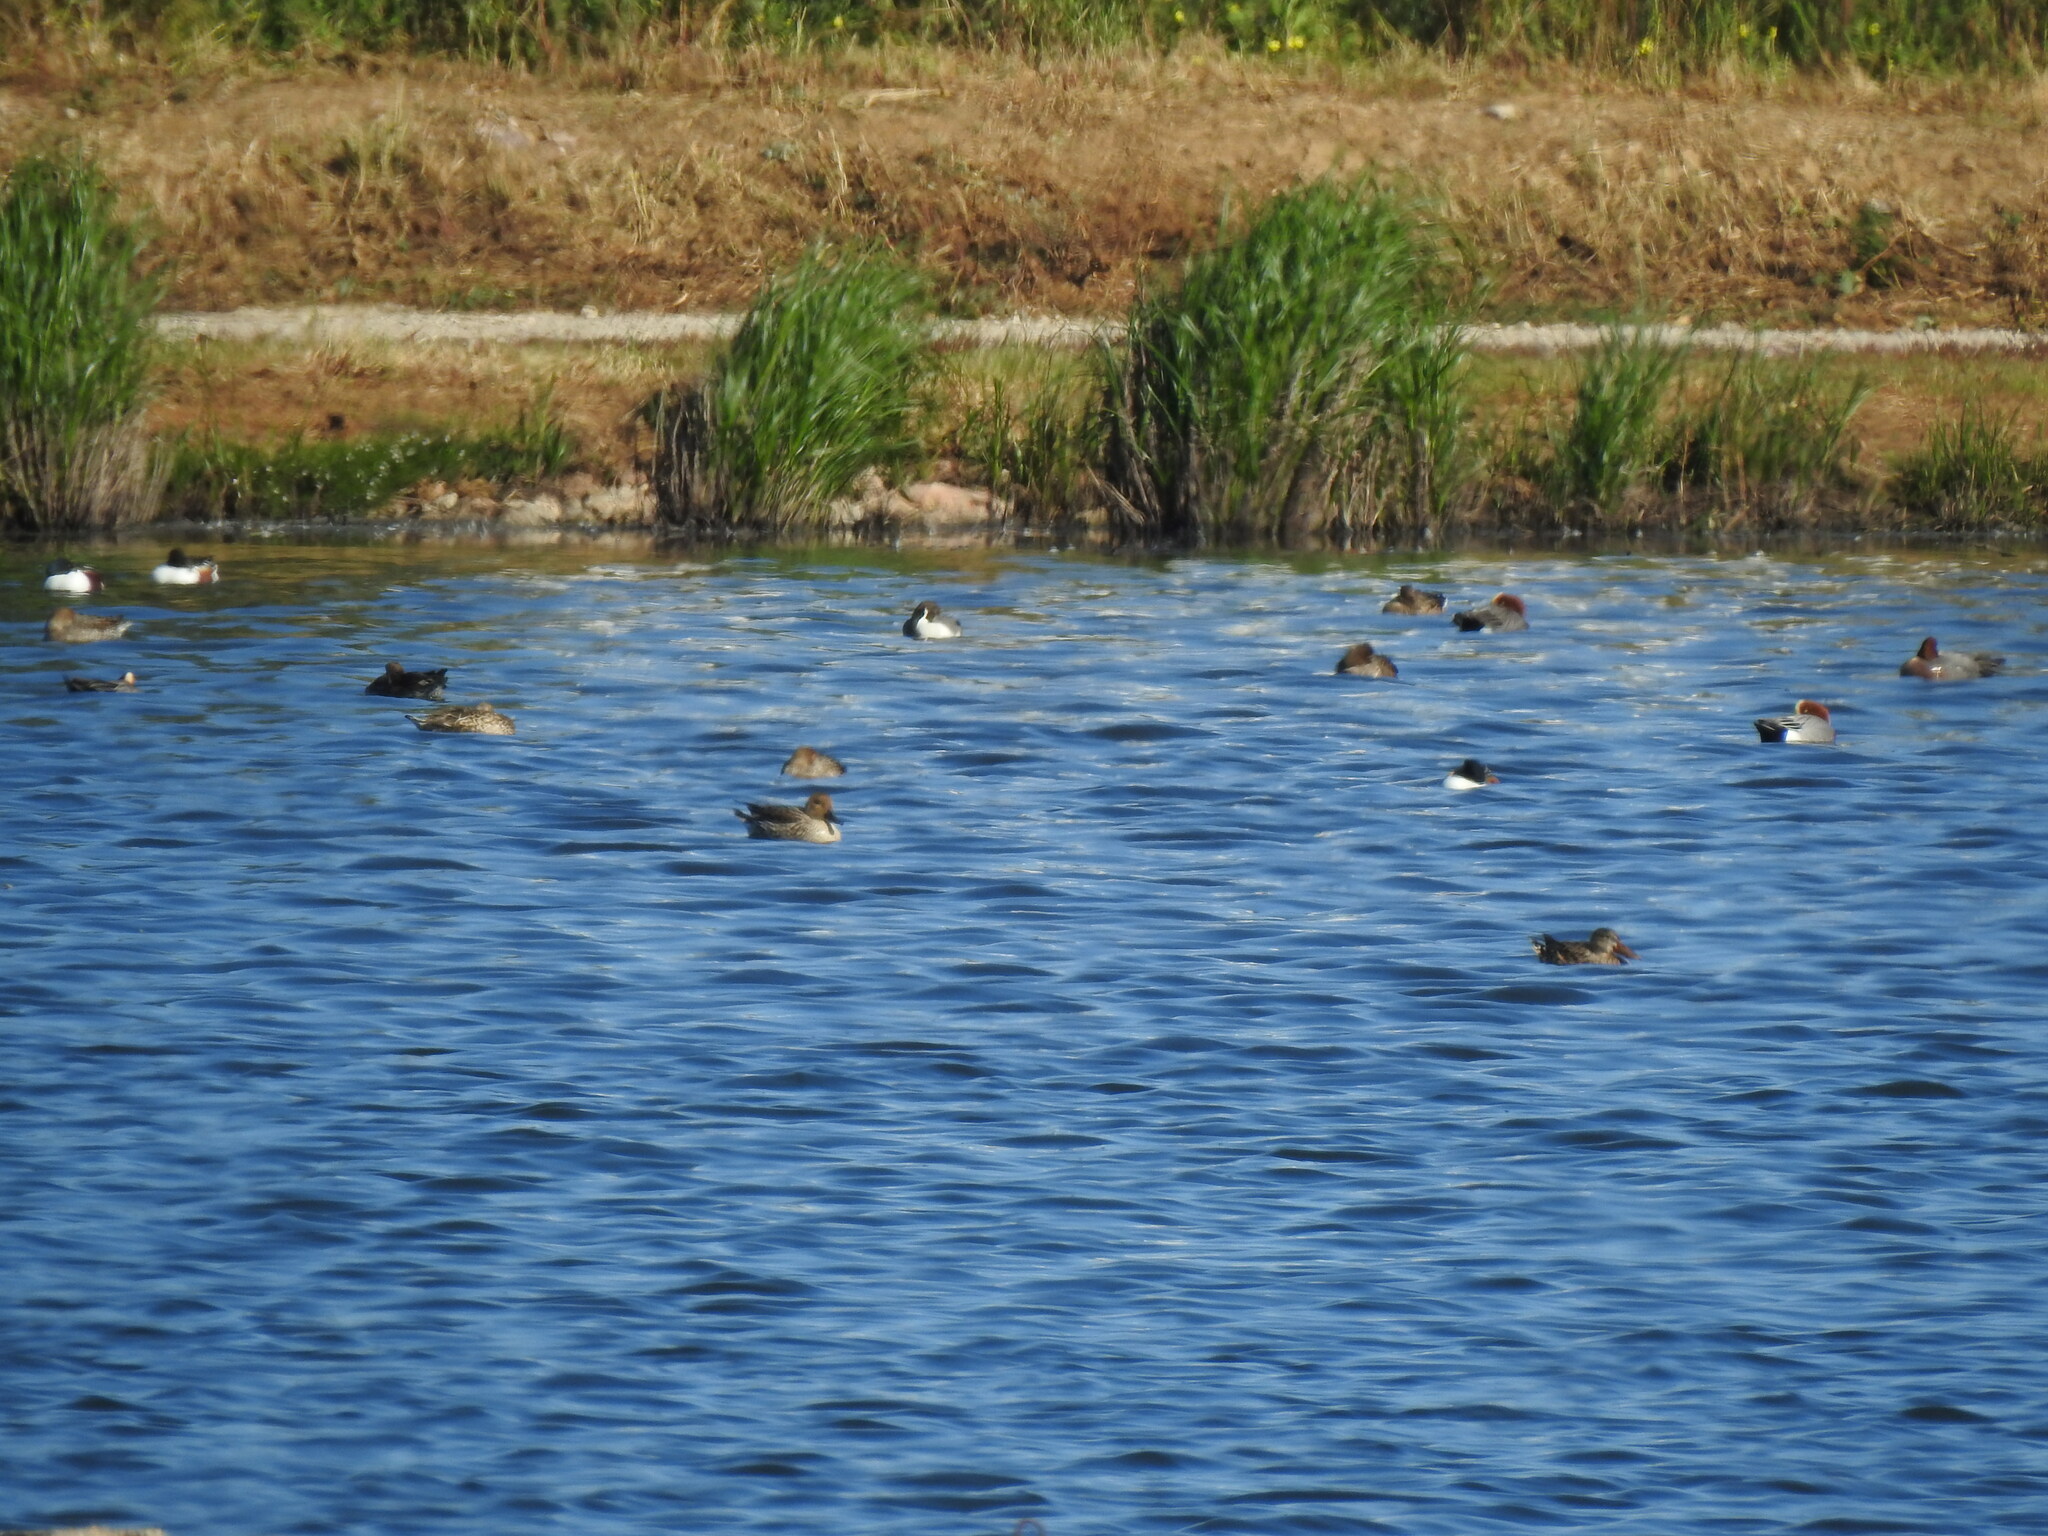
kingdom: Animalia
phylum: Chordata
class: Aves
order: Anseriformes
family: Anatidae
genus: Mareca
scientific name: Mareca penelope
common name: Eurasian wigeon
